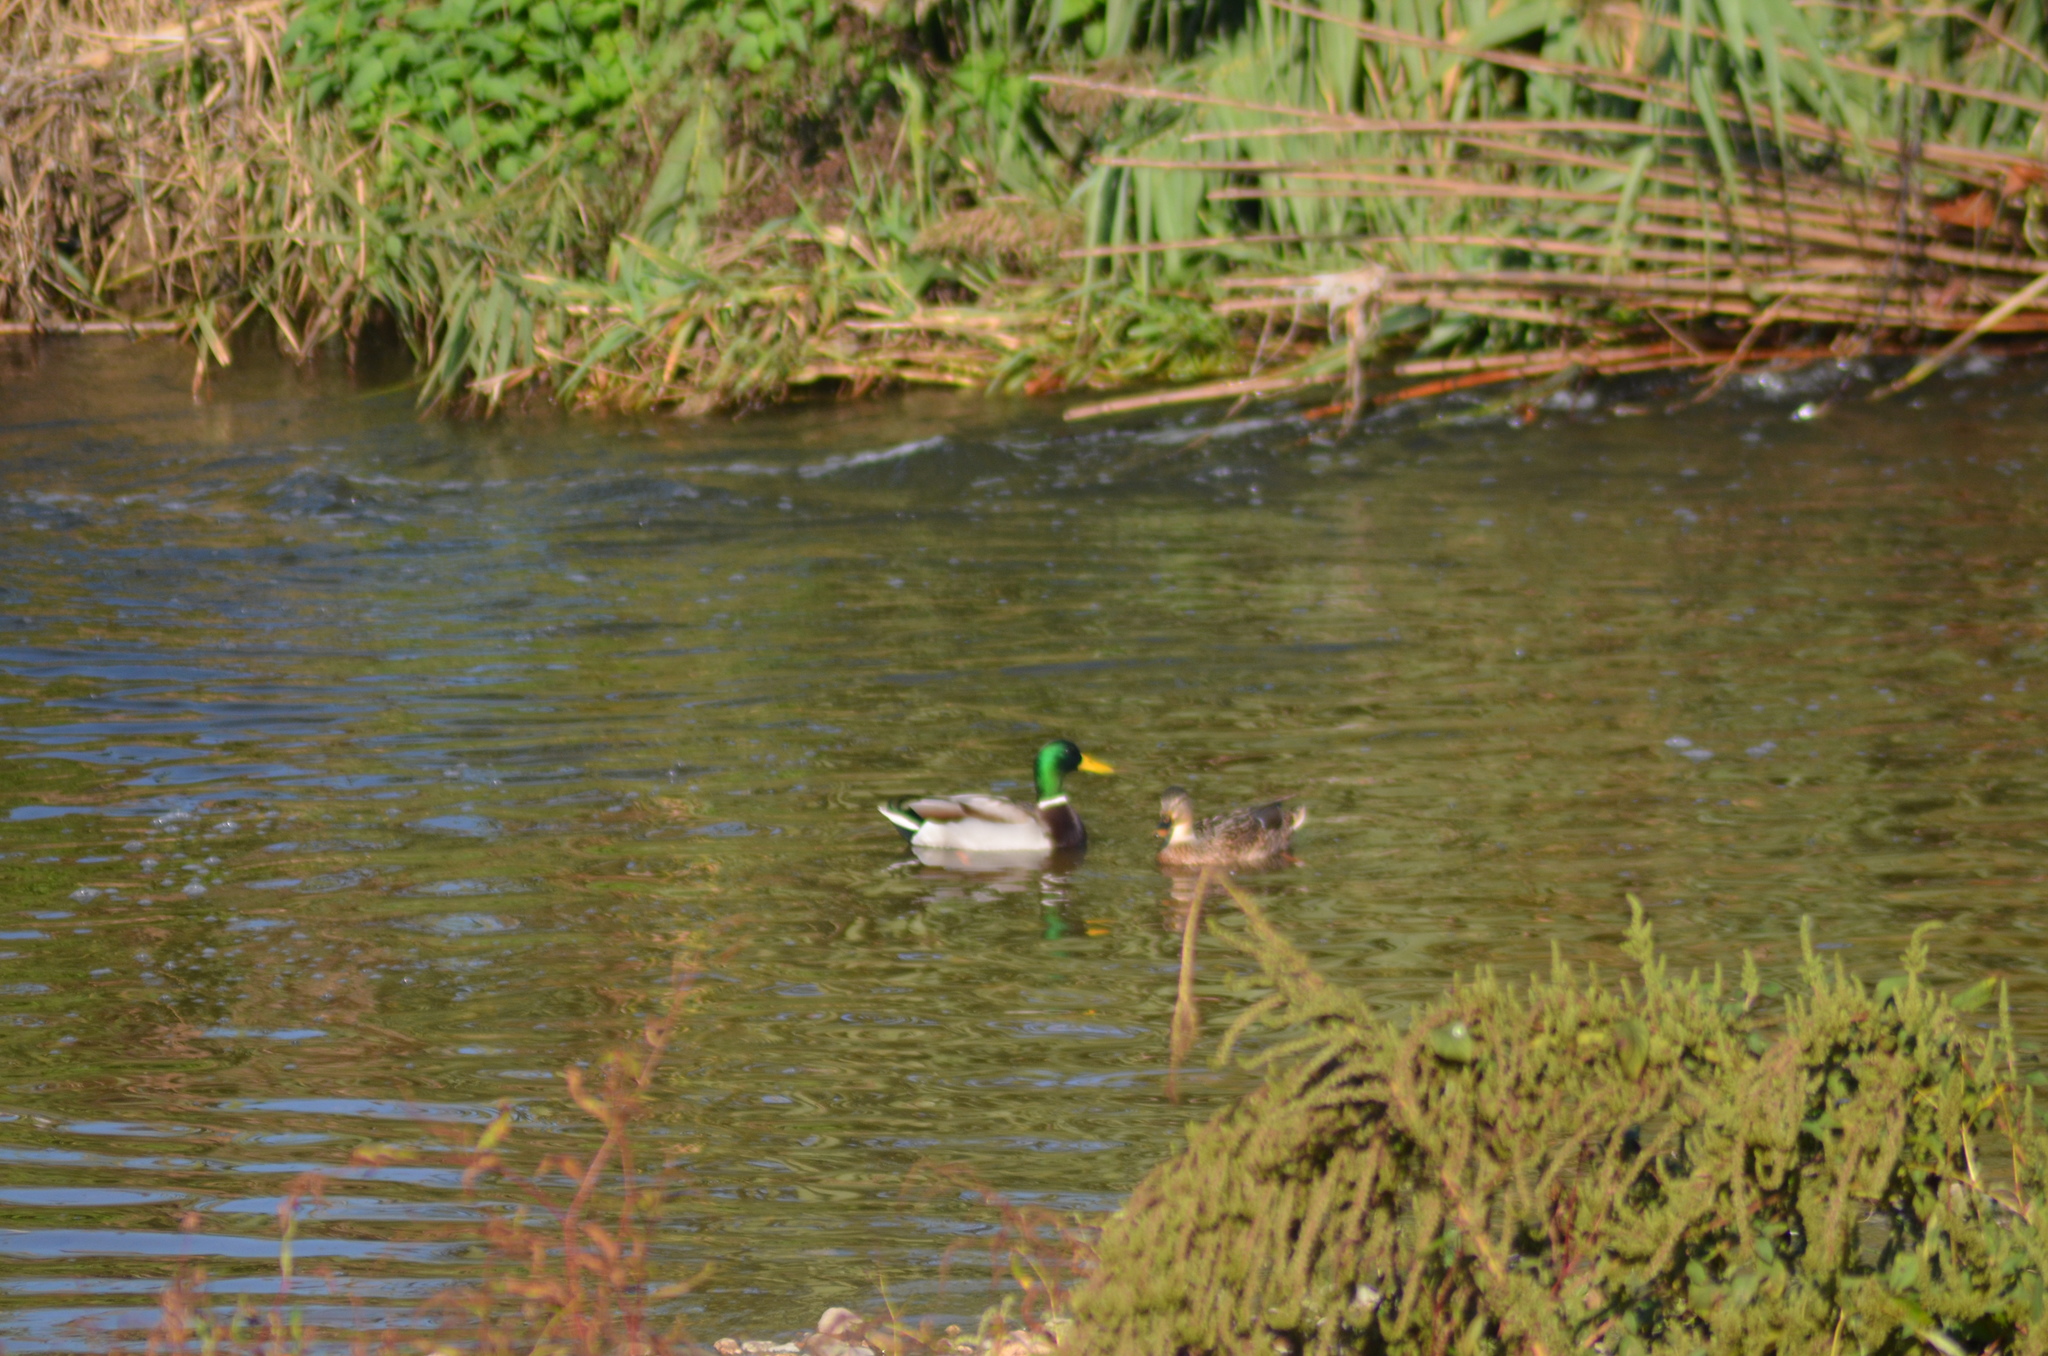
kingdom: Animalia
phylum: Chordata
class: Aves
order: Anseriformes
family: Anatidae
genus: Anas
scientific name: Anas platyrhynchos
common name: Mallard
